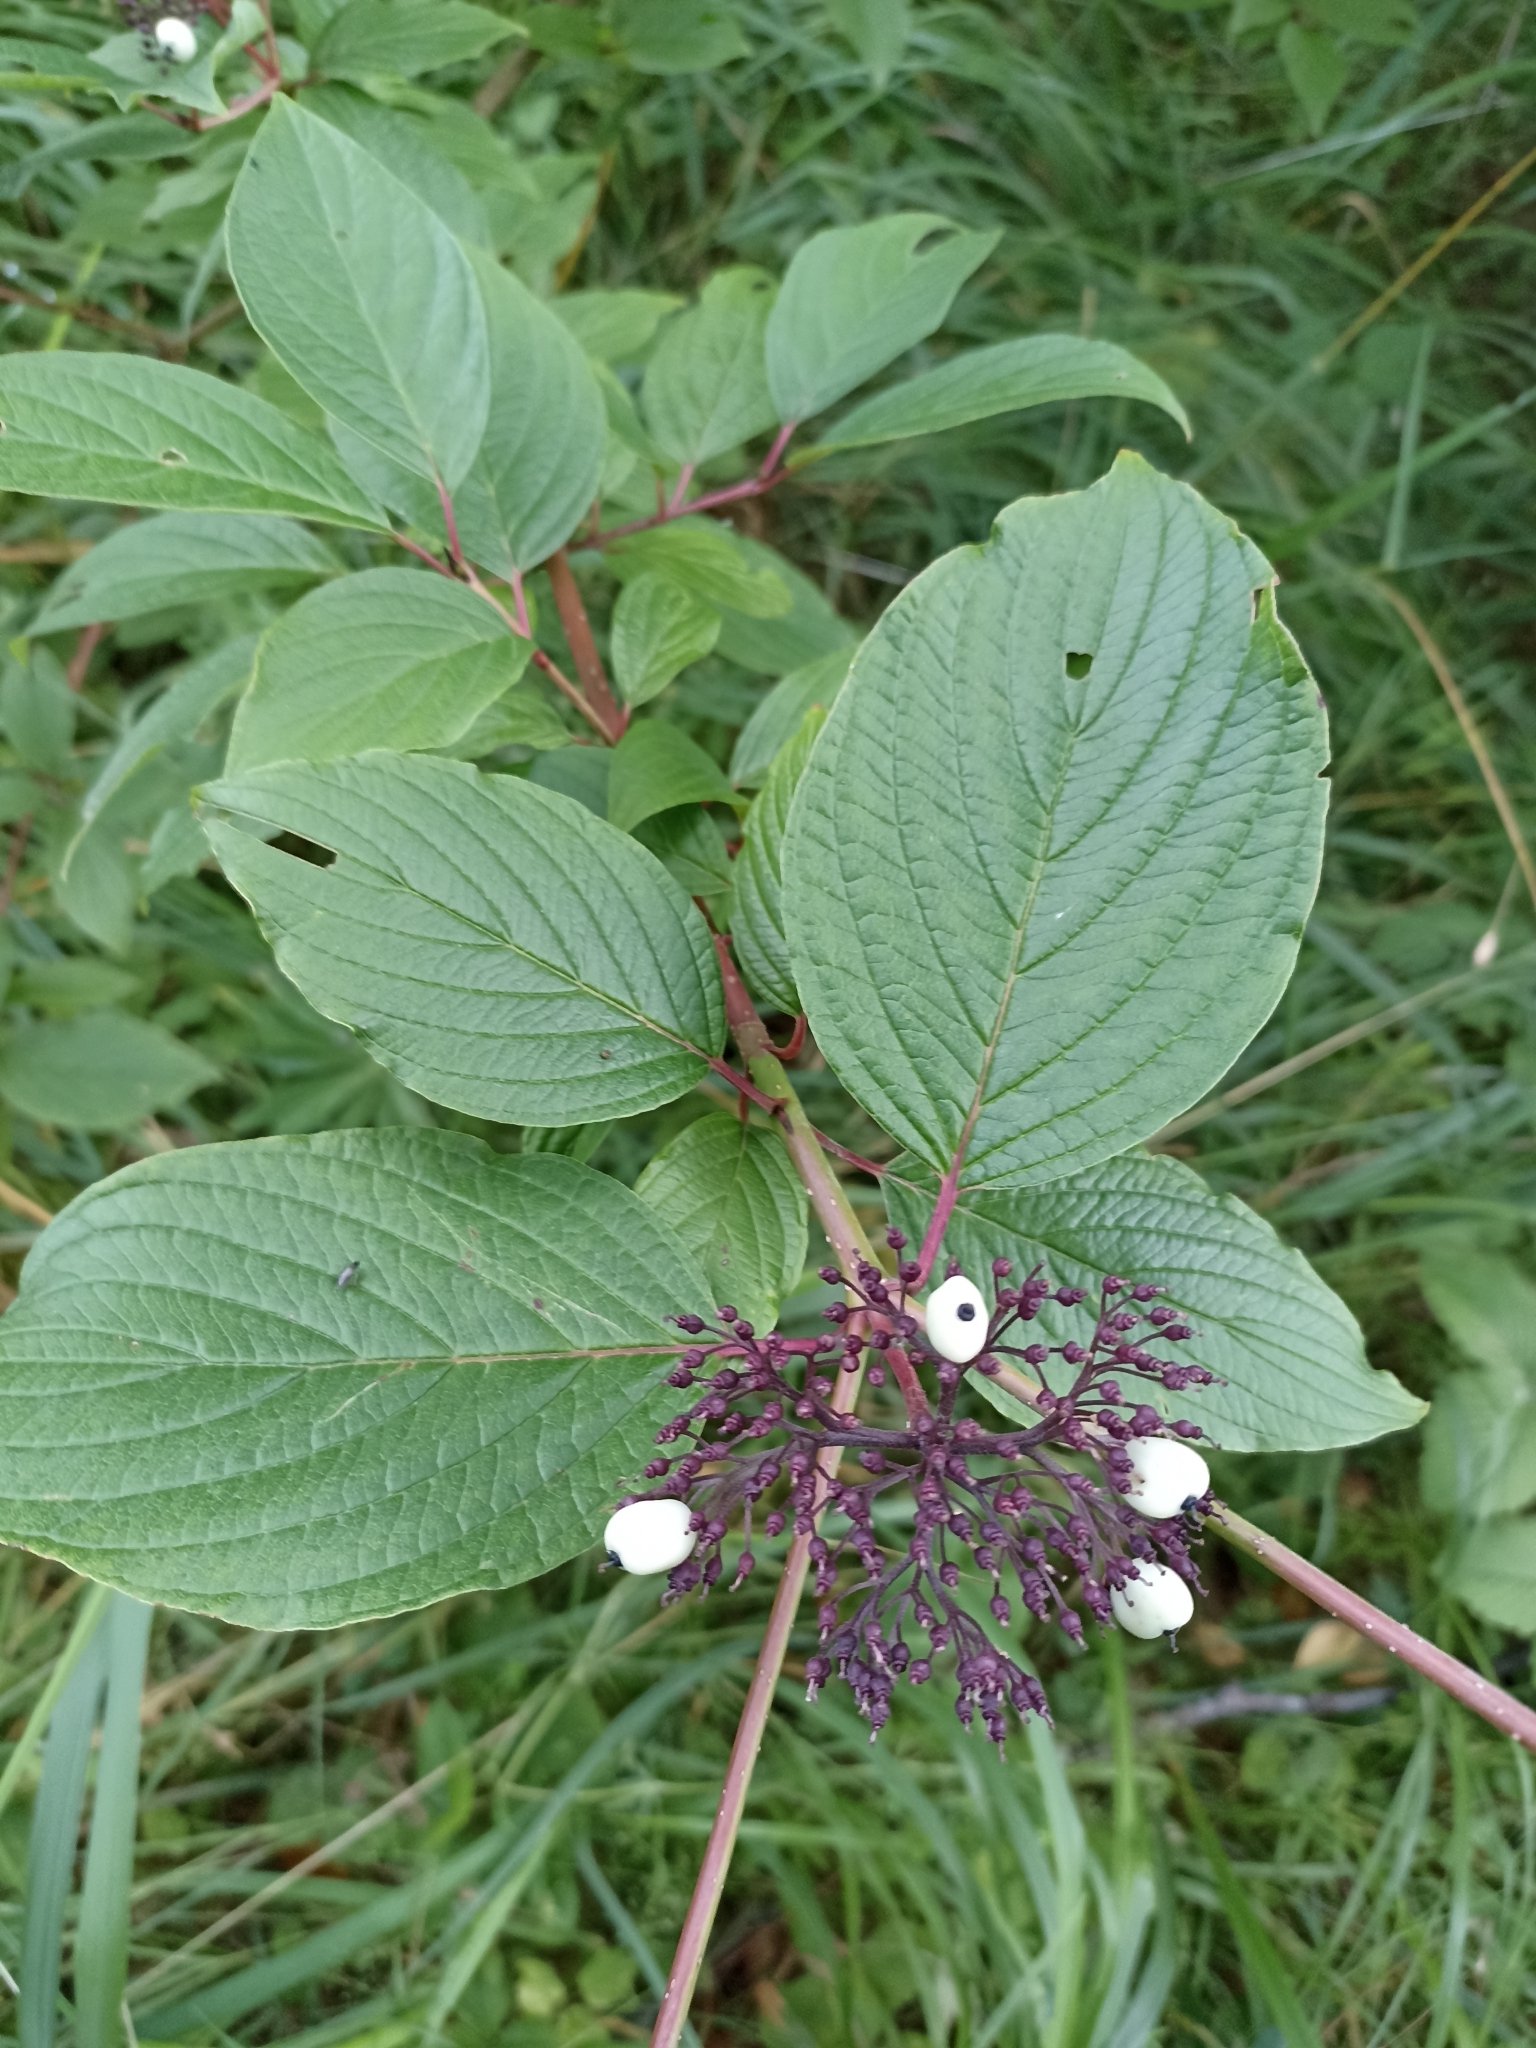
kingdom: Plantae
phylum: Tracheophyta
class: Magnoliopsida
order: Cornales
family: Cornaceae
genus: Cornus
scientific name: Cornus alba
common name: White dogwood
